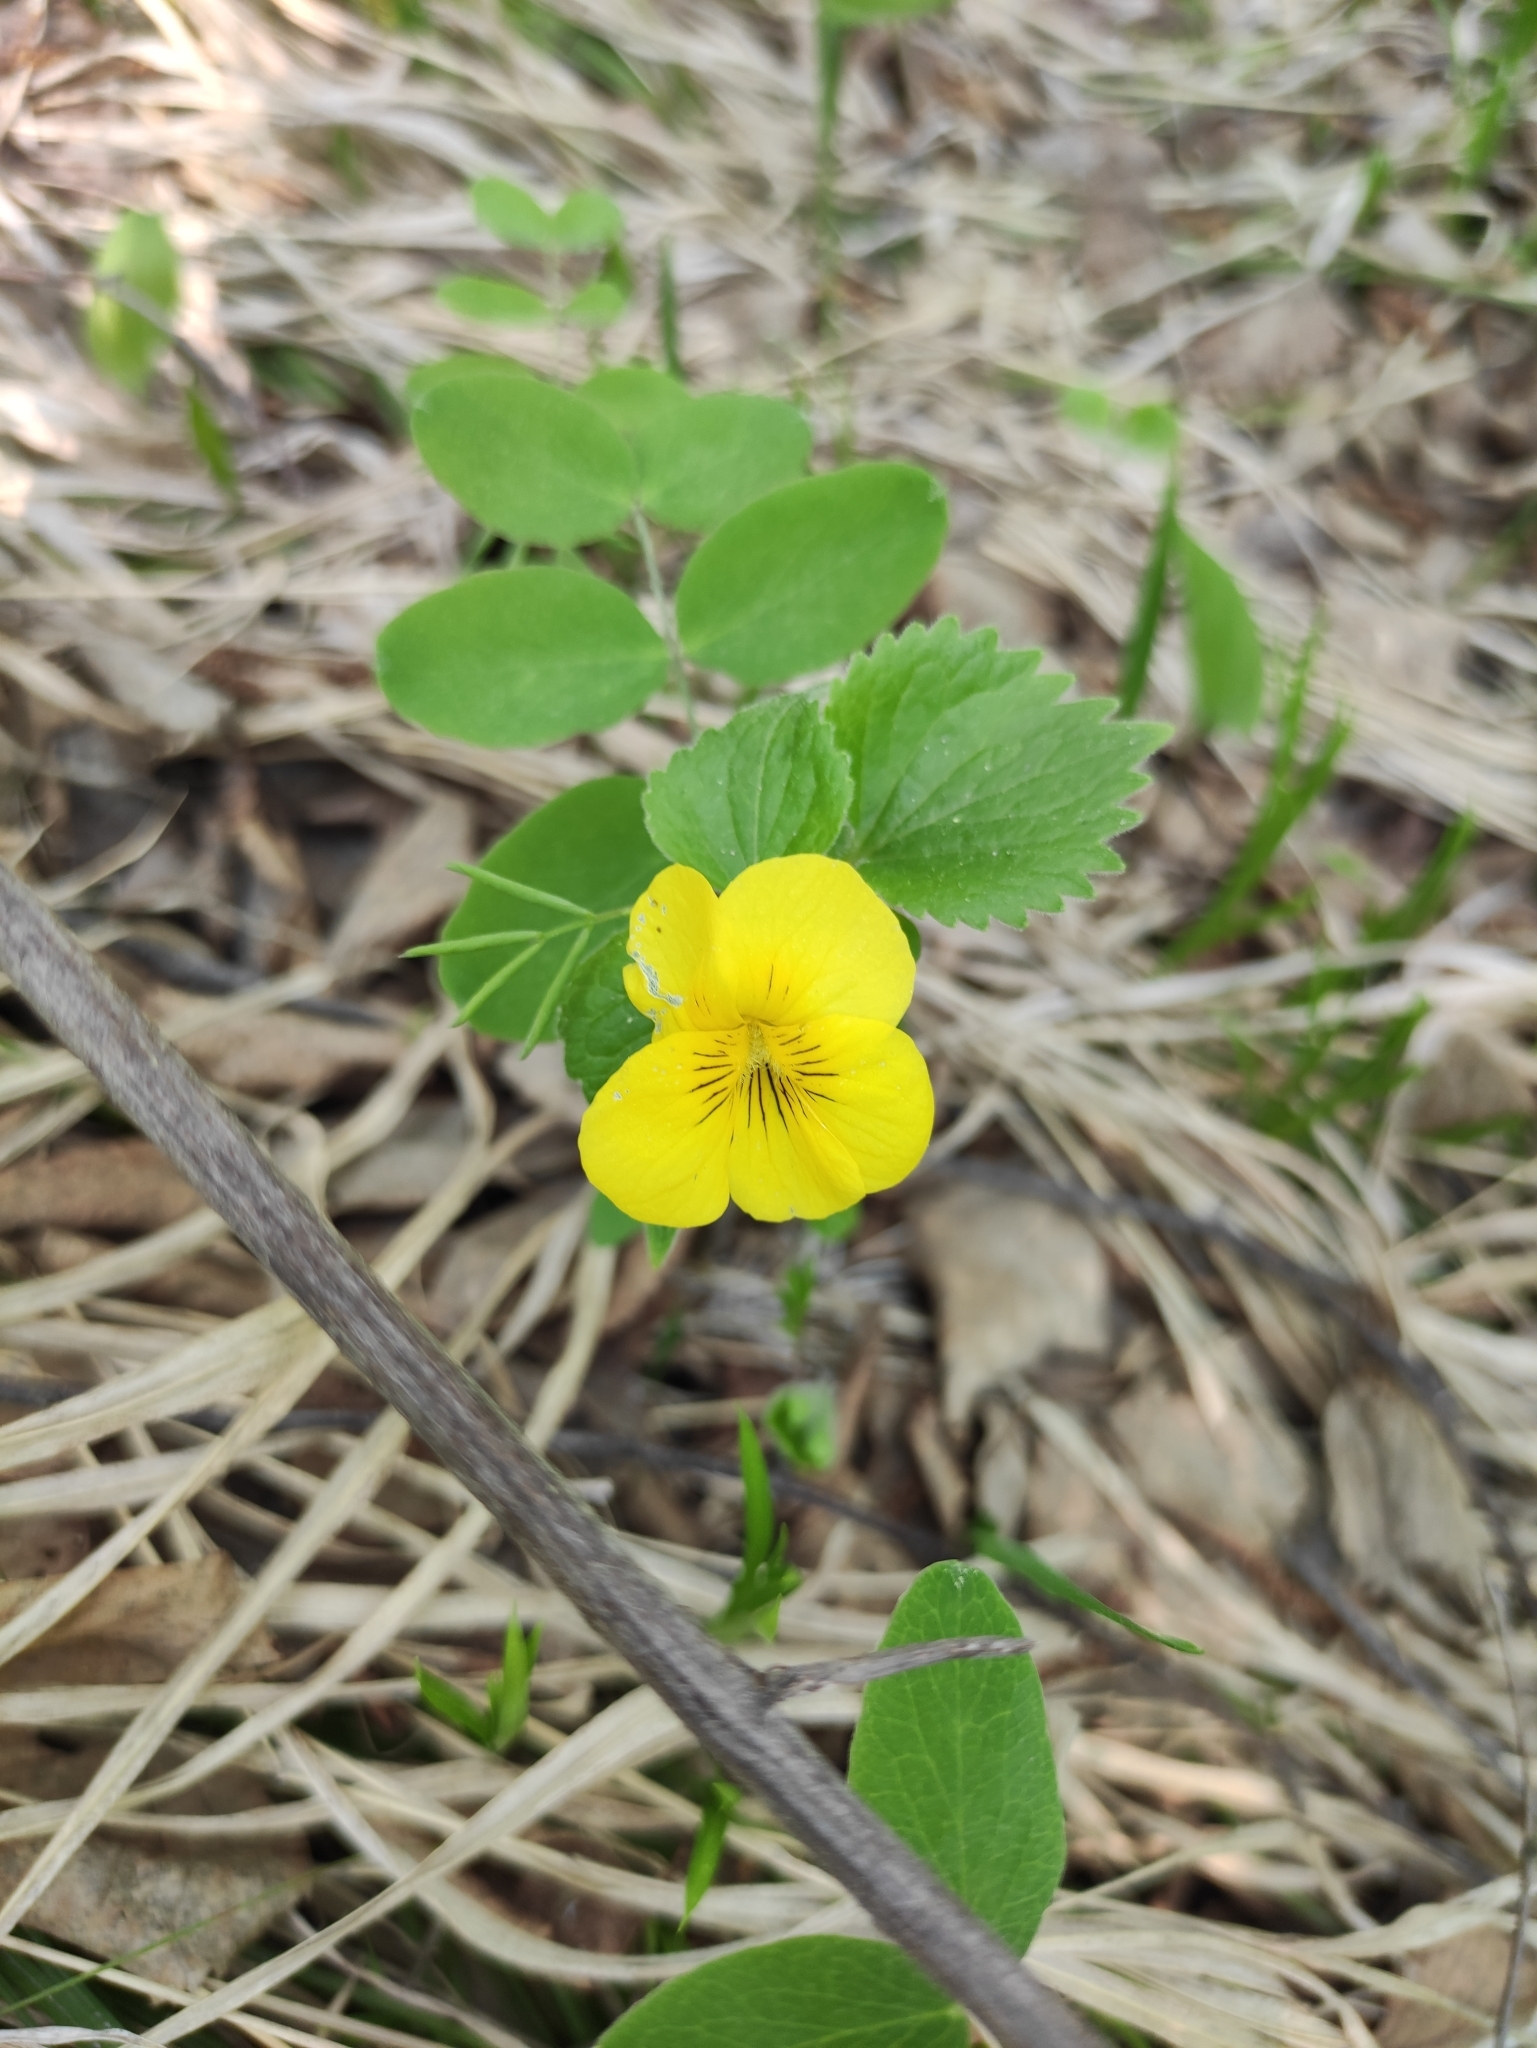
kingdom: Plantae
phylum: Tracheophyta
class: Magnoliopsida
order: Malpighiales
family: Violaceae
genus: Viola
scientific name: Viola uniflora
